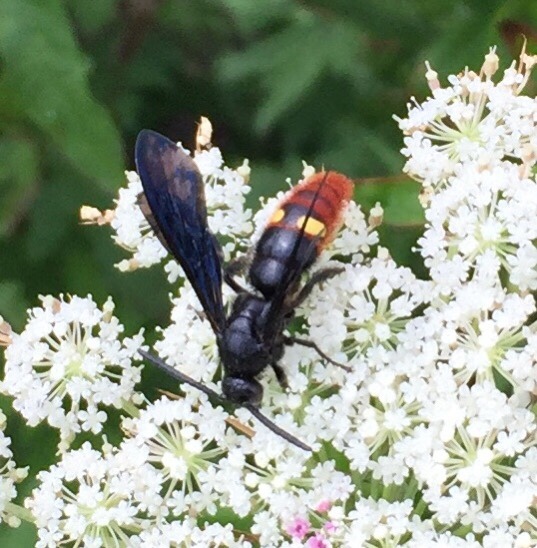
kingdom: Animalia
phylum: Arthropoda
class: Insecta
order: Hymenoptera
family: Scoliidae
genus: Scolia
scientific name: Scolia dubia
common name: Blue-winged scoliid wasp
